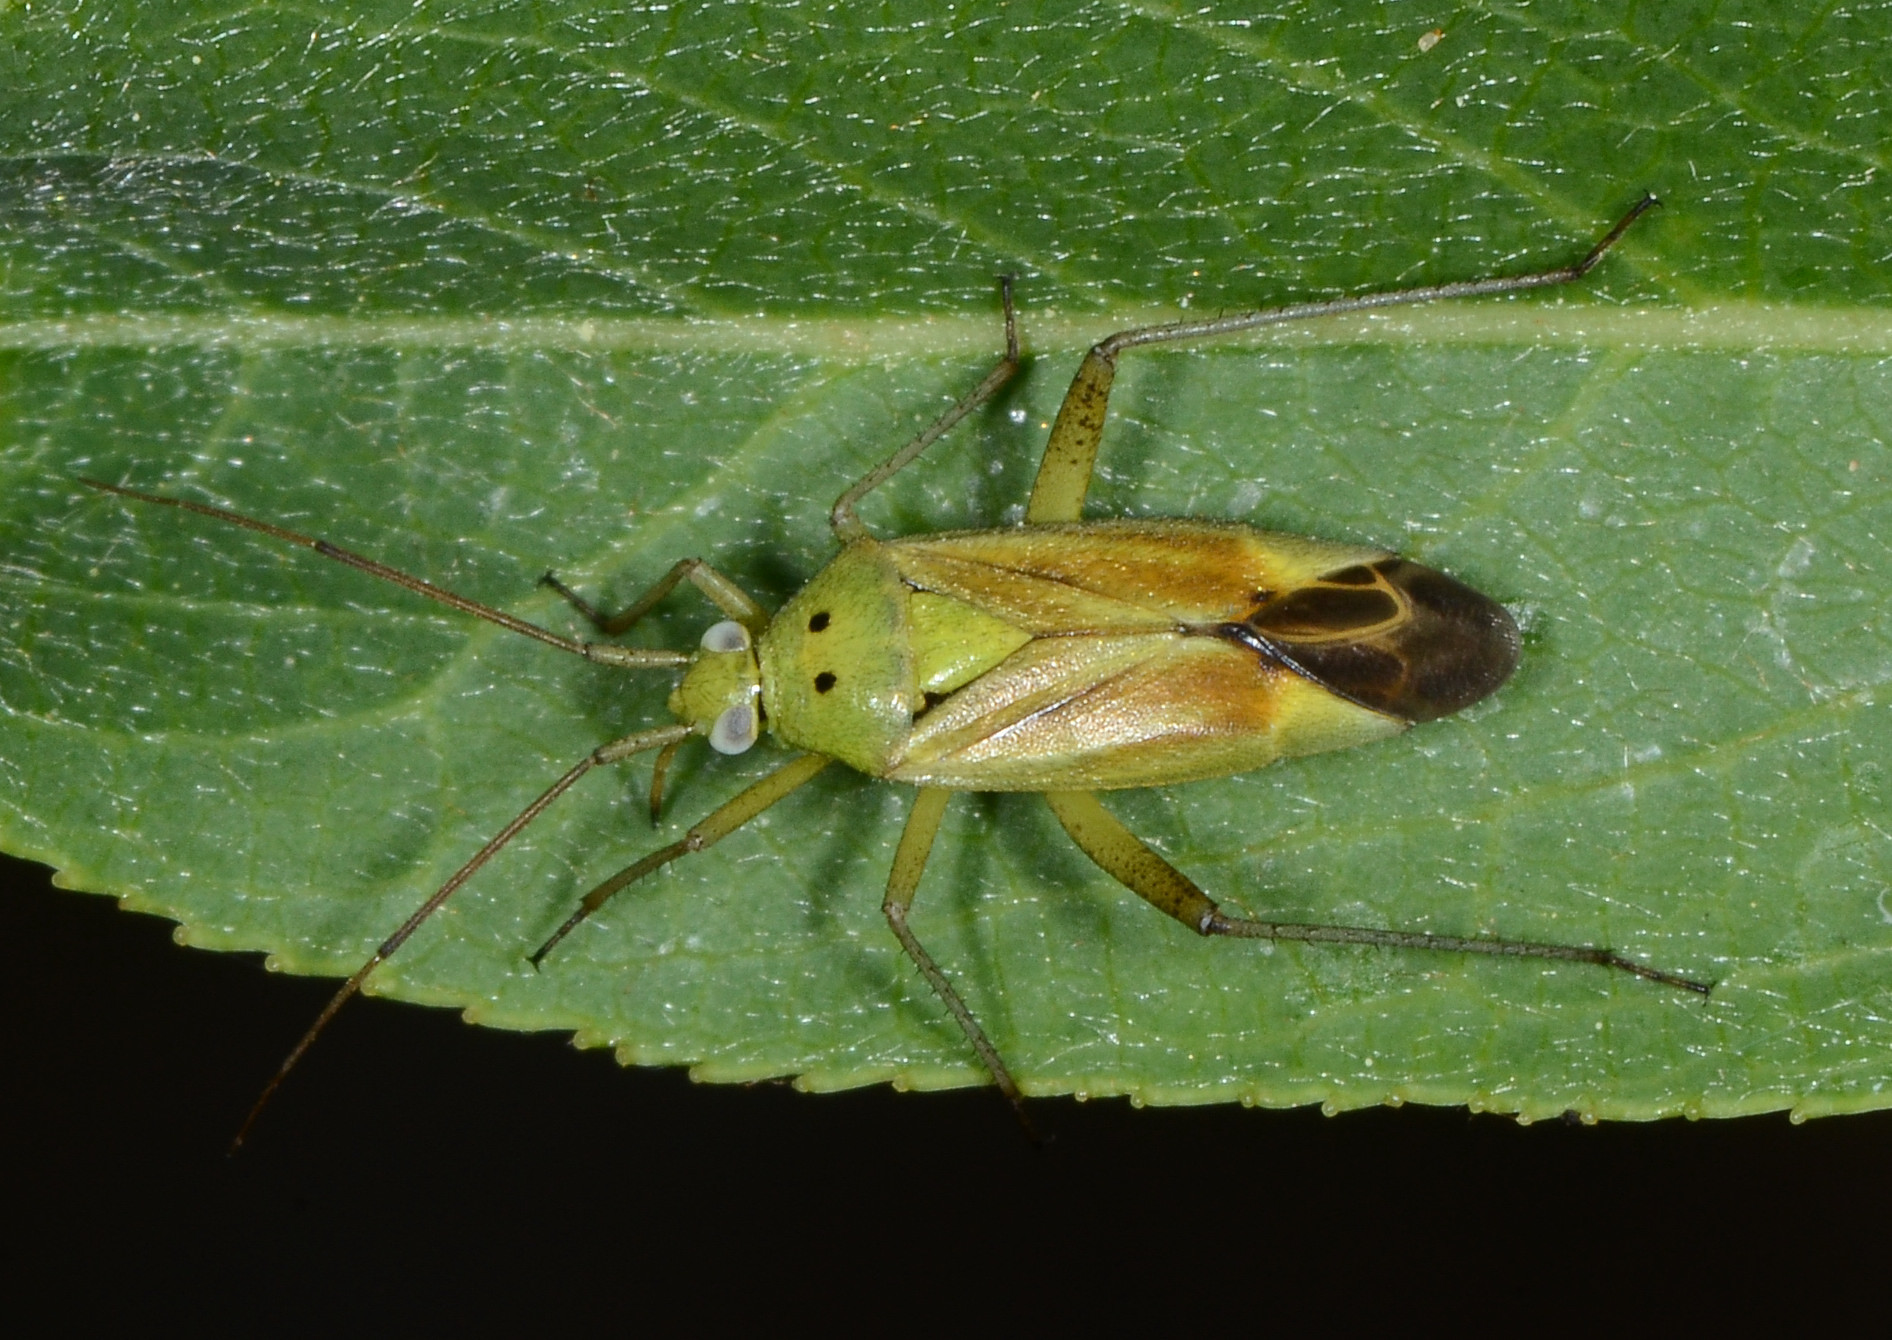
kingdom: Animalia
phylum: Arthropoda
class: Insecta
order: Hemiptera
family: Miridae
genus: Closterotomus
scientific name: Closterotomus norvegicus
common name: Plant bug
